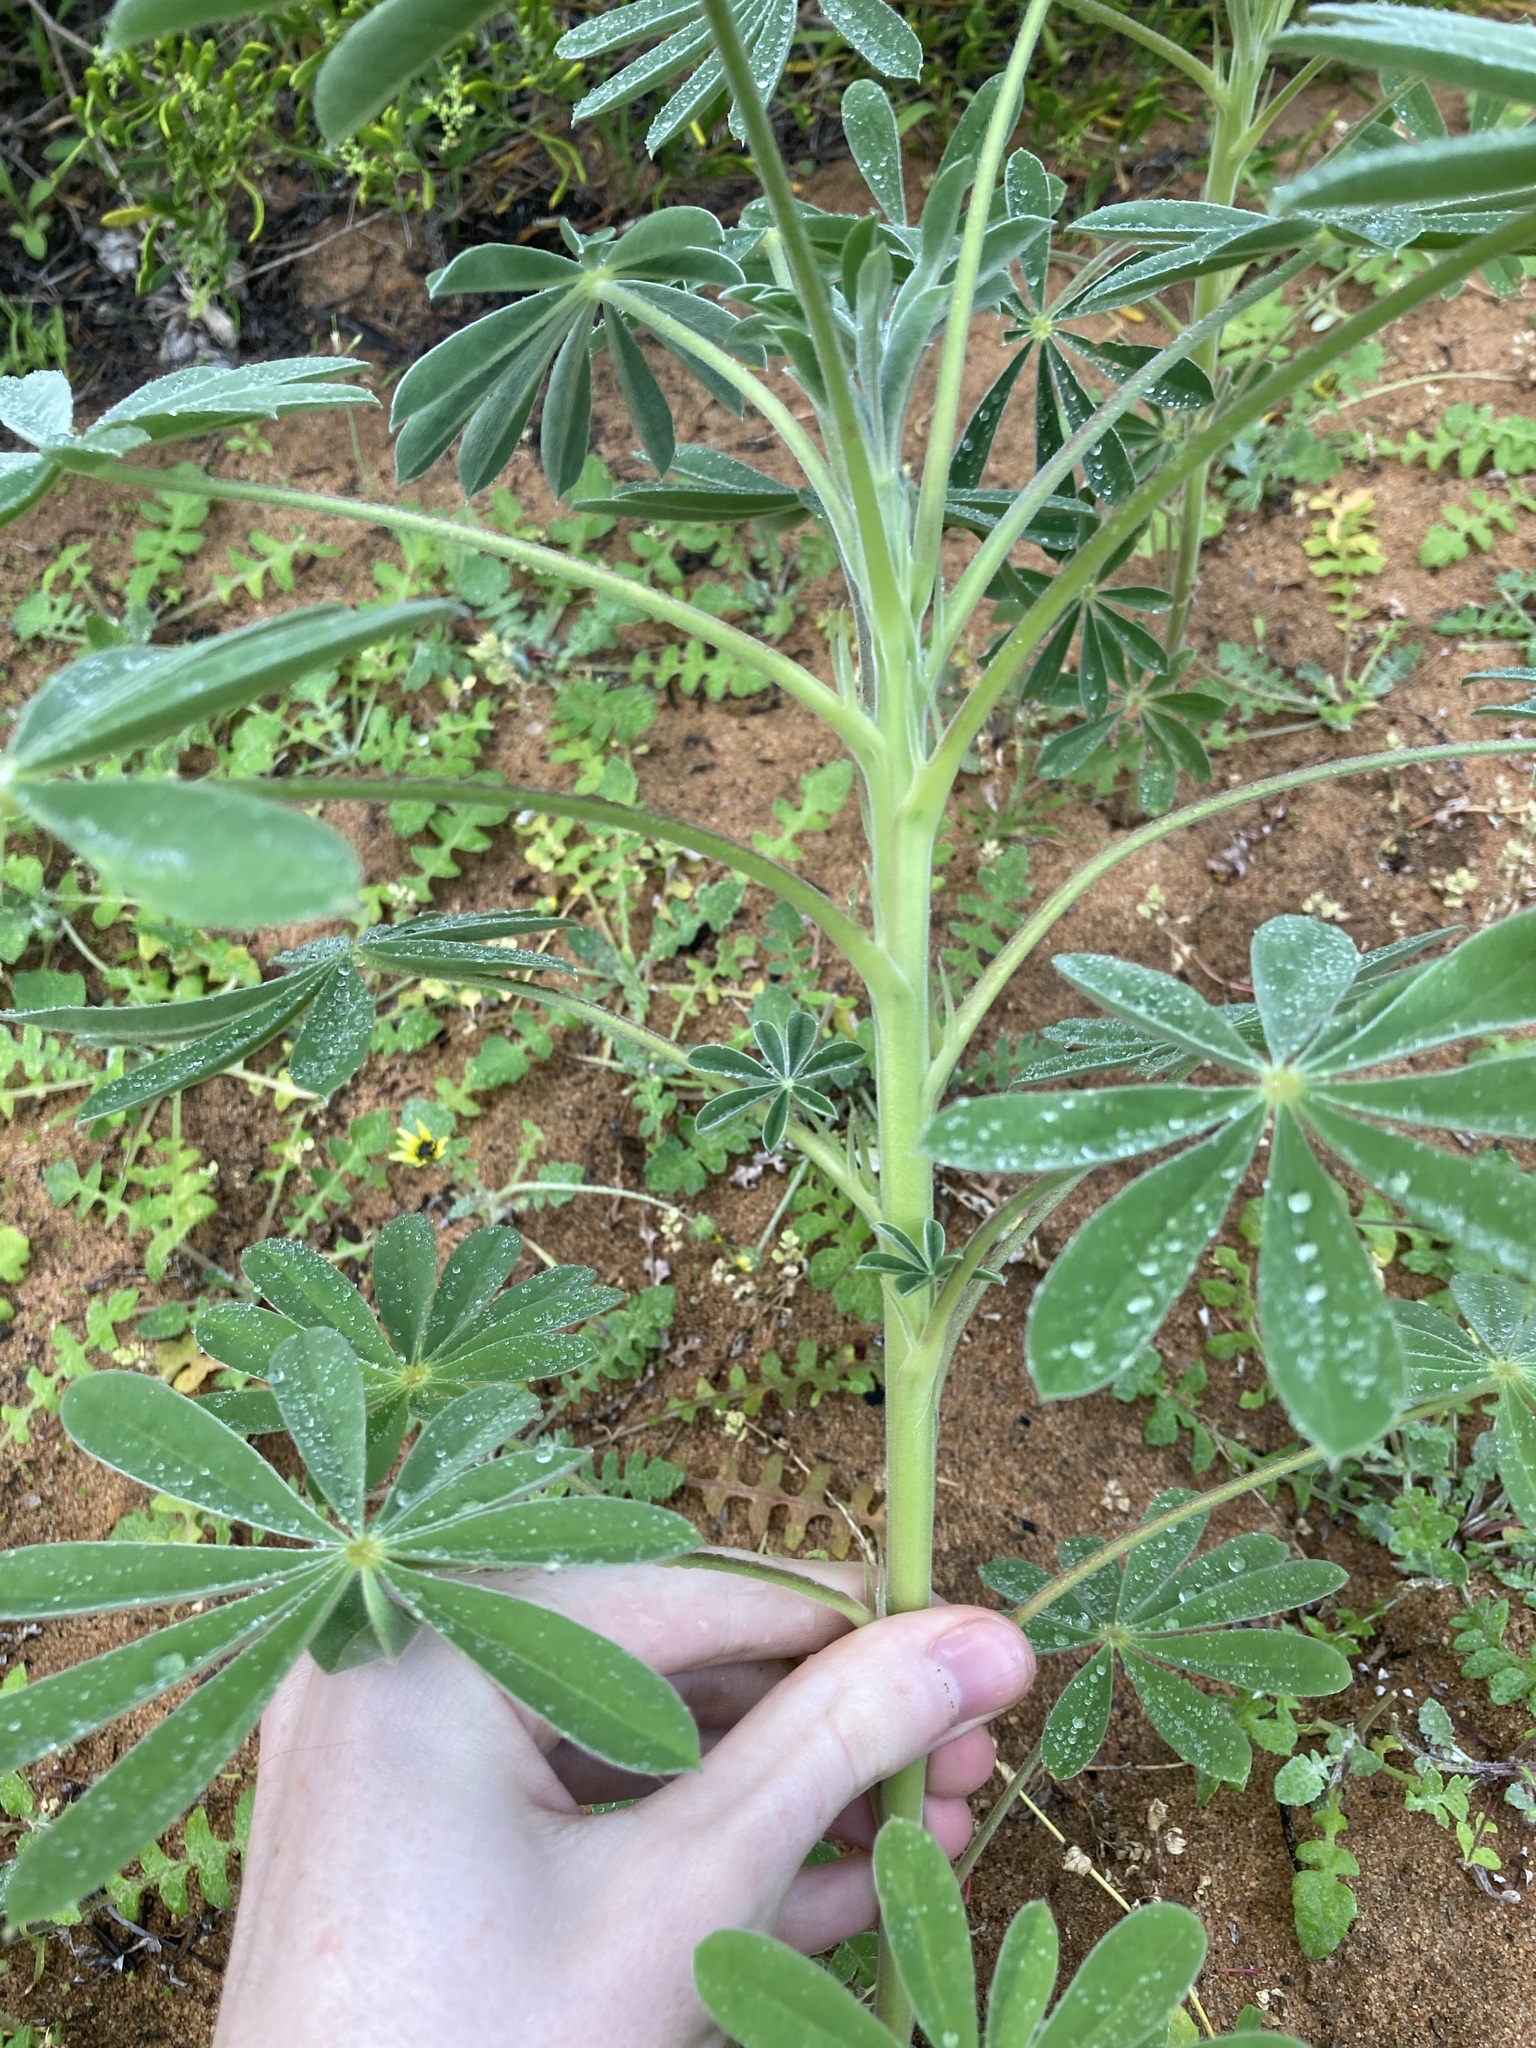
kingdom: Plantae
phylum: Tracheophyta
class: Magnoliopsida
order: Fabales
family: Fabaceae
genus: Lupinus
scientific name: Lupinus cosentinii
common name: Hairy blue lupin
